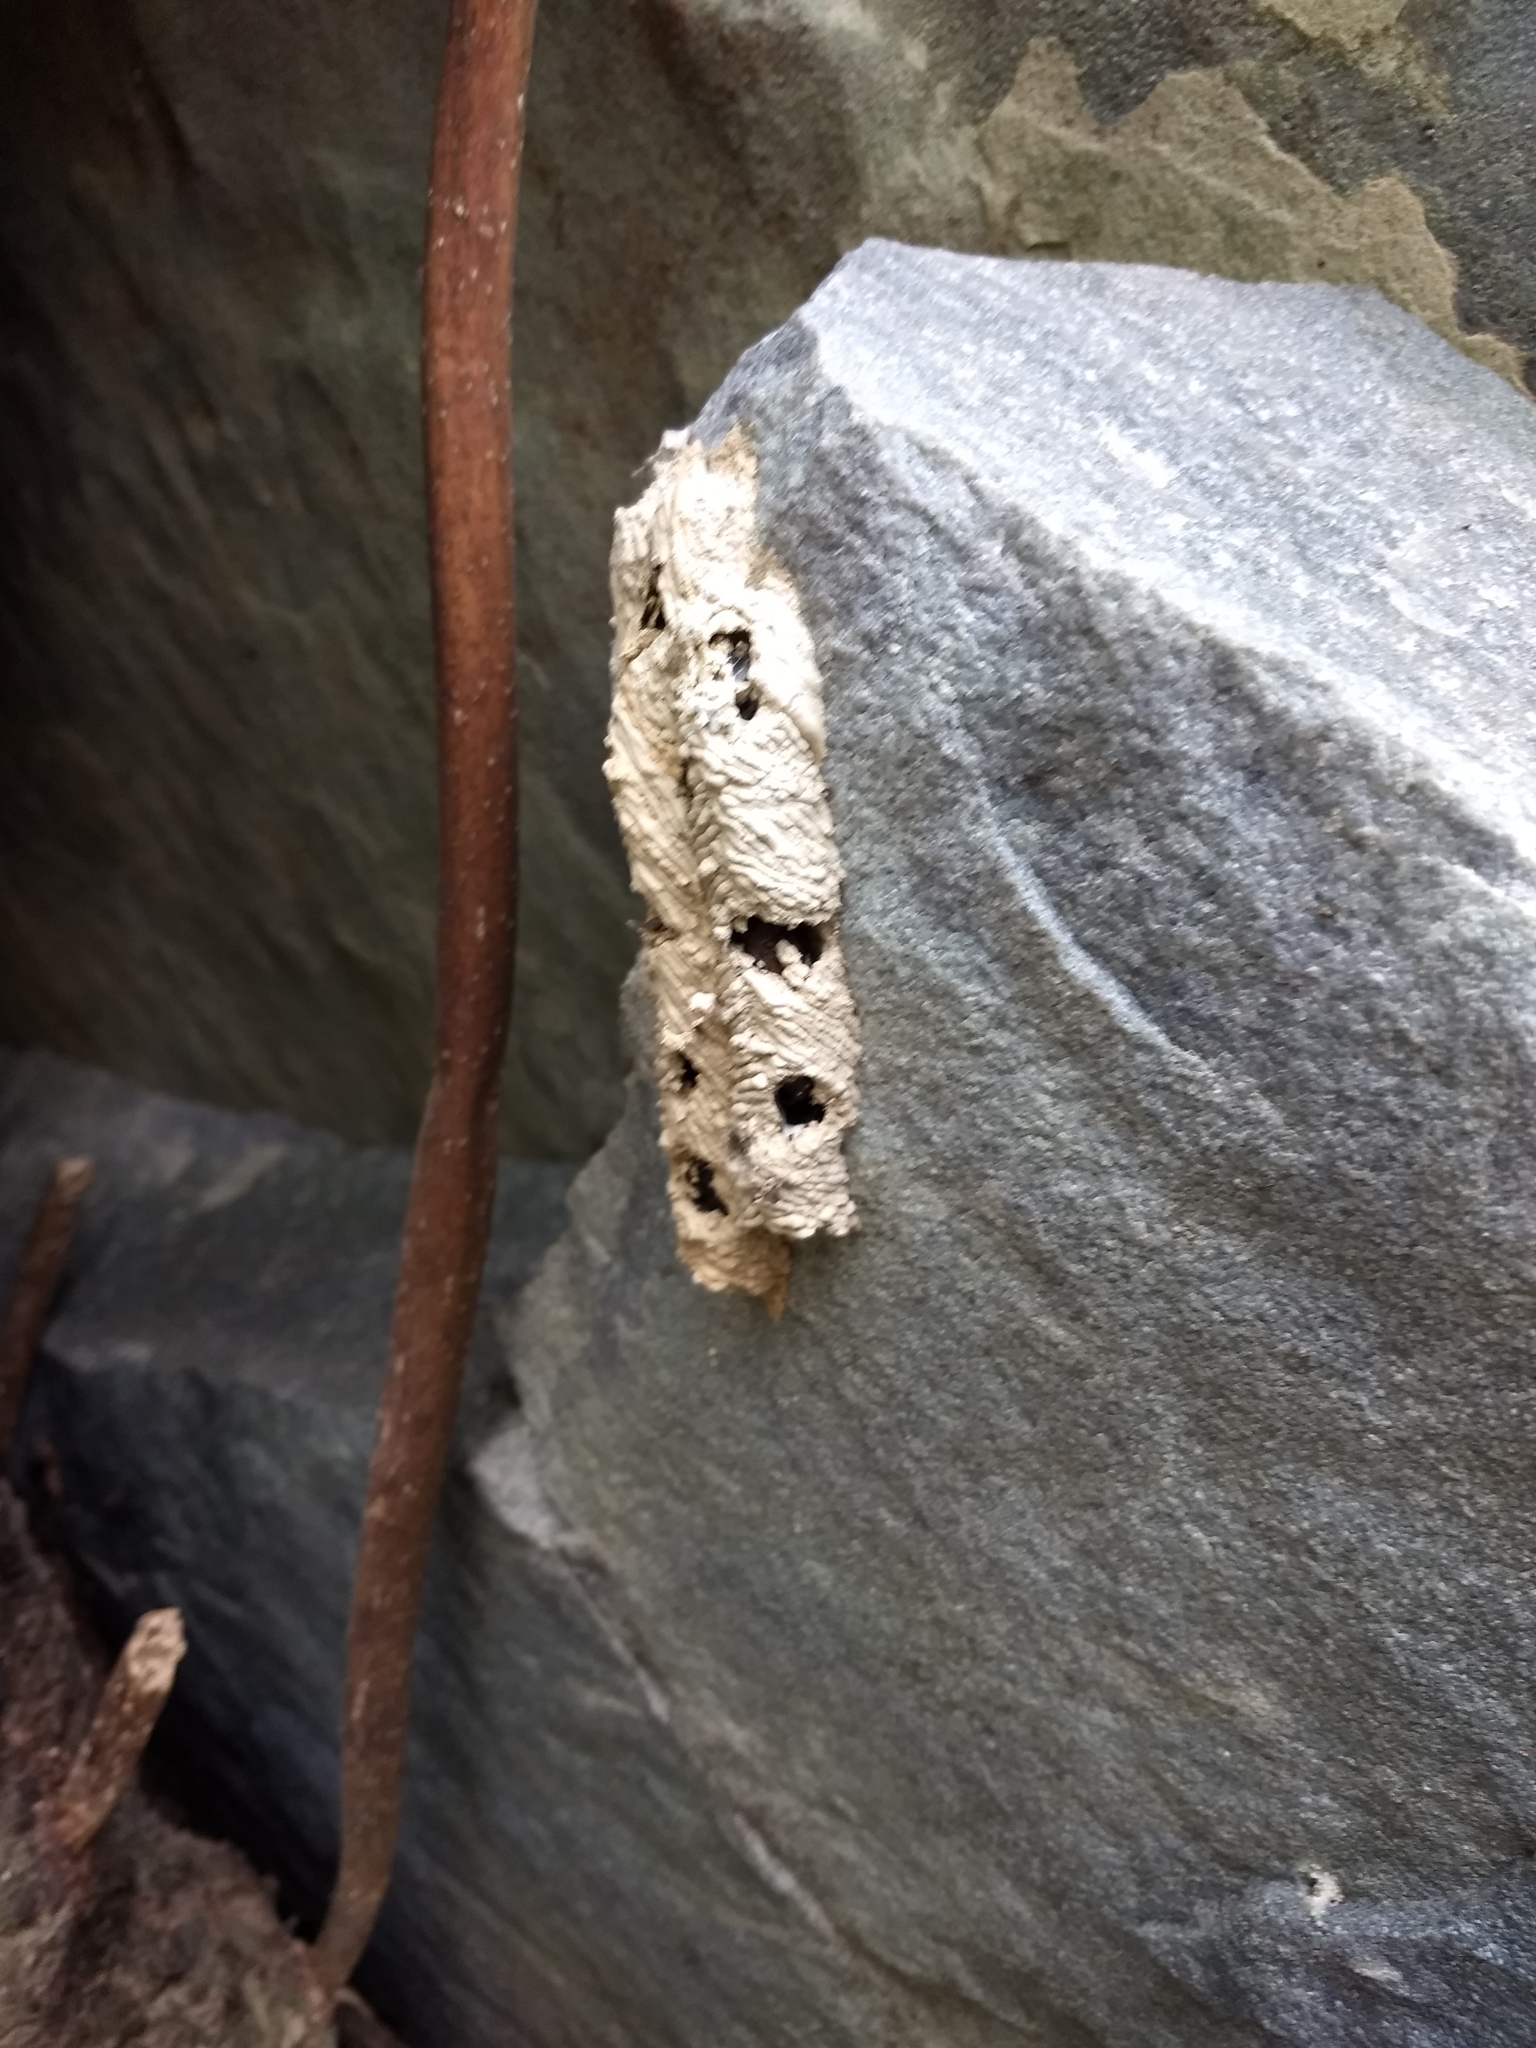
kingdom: Animalia
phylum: Arthropoda
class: Insecta
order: Hymenoptera
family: Crabronidae
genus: Trypoxylon
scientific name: Trypoxylon politum
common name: Organ-pipe mud-dauber wasp
